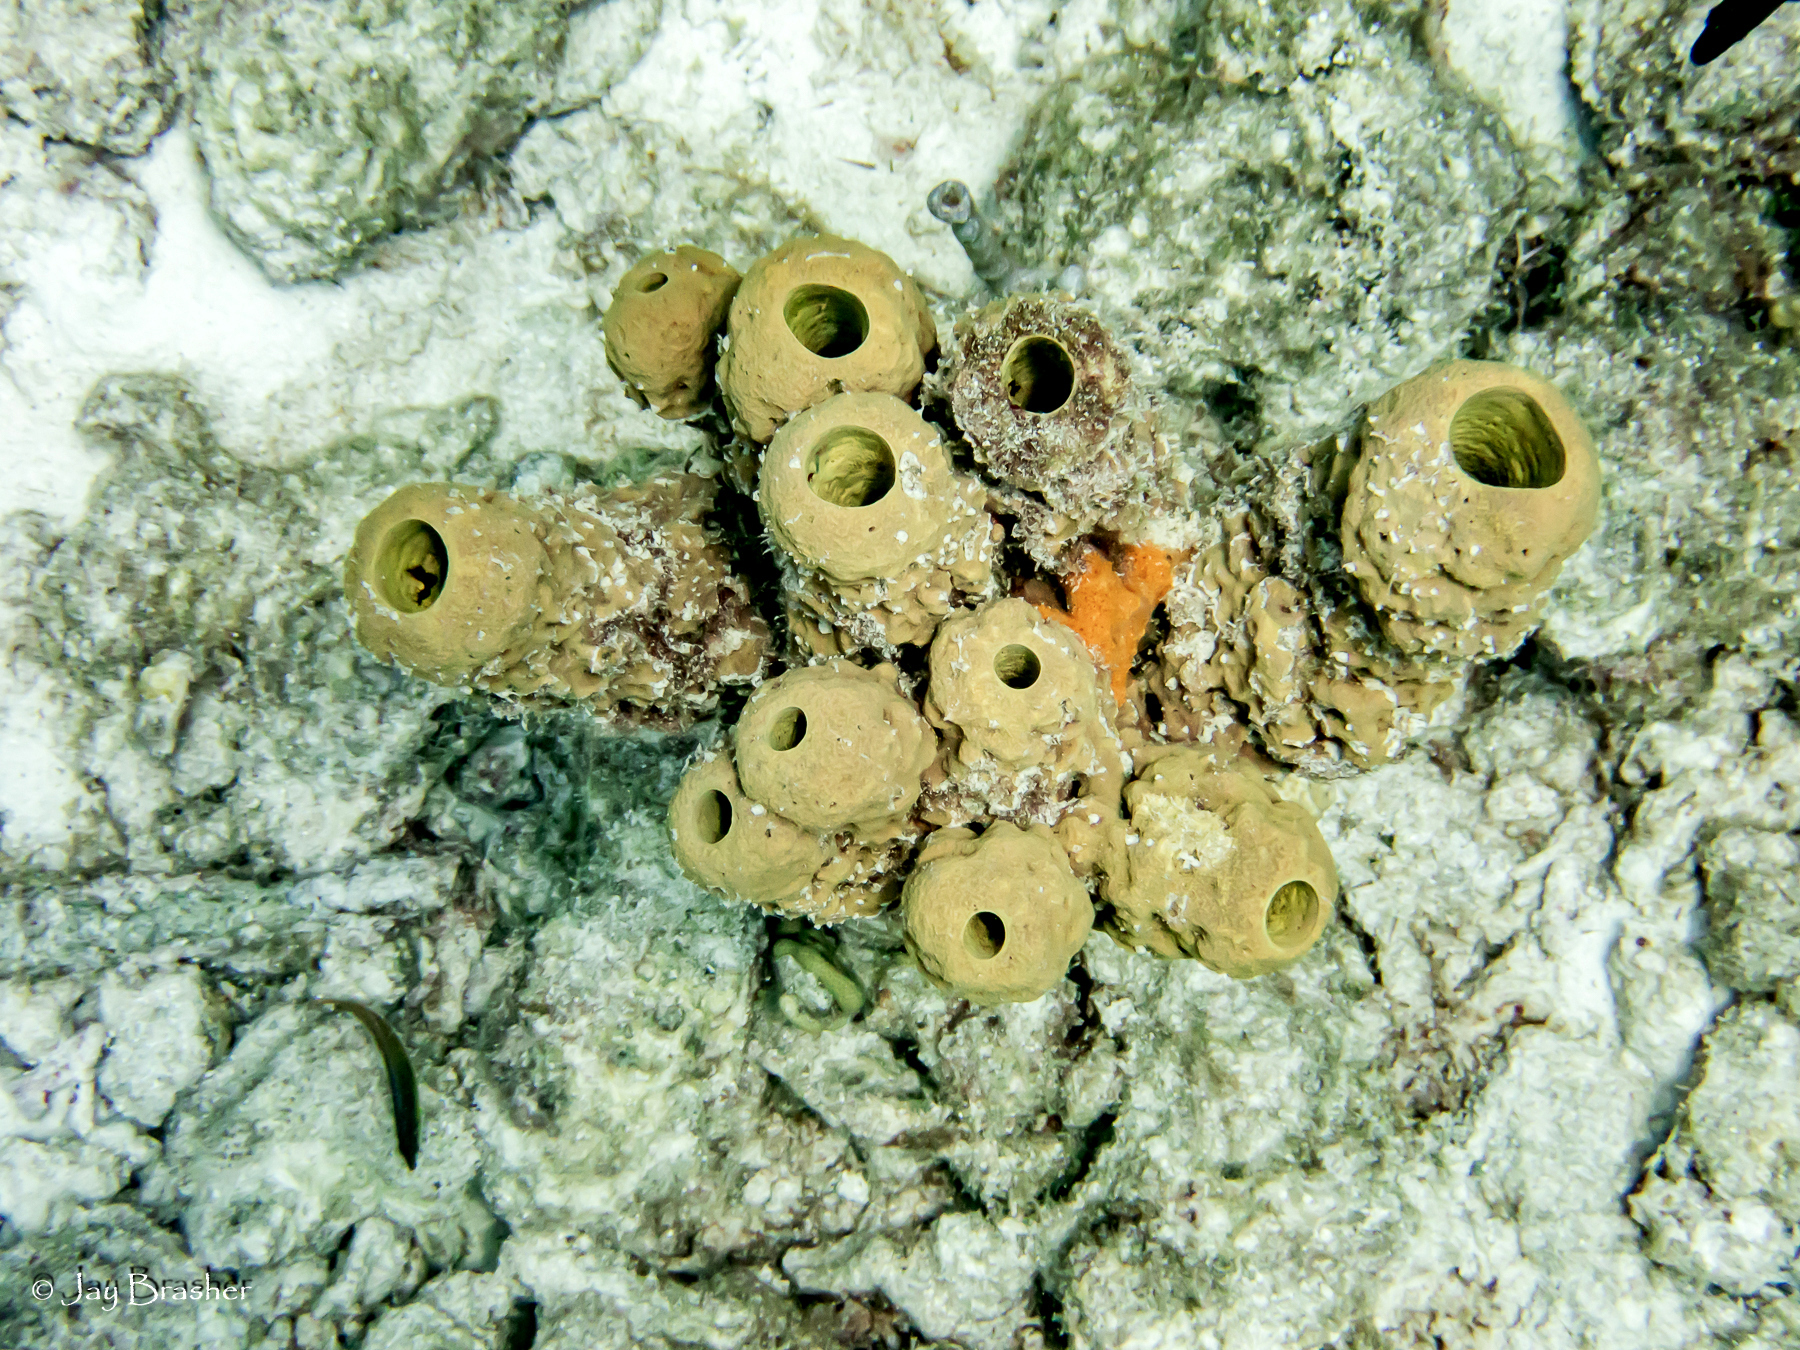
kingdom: Animalia
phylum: Porifera
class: Demospongiae
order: Verongiida
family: Aplysinidae
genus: Aplysina
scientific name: Aplysina archeri
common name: Stove-pipe sponge
